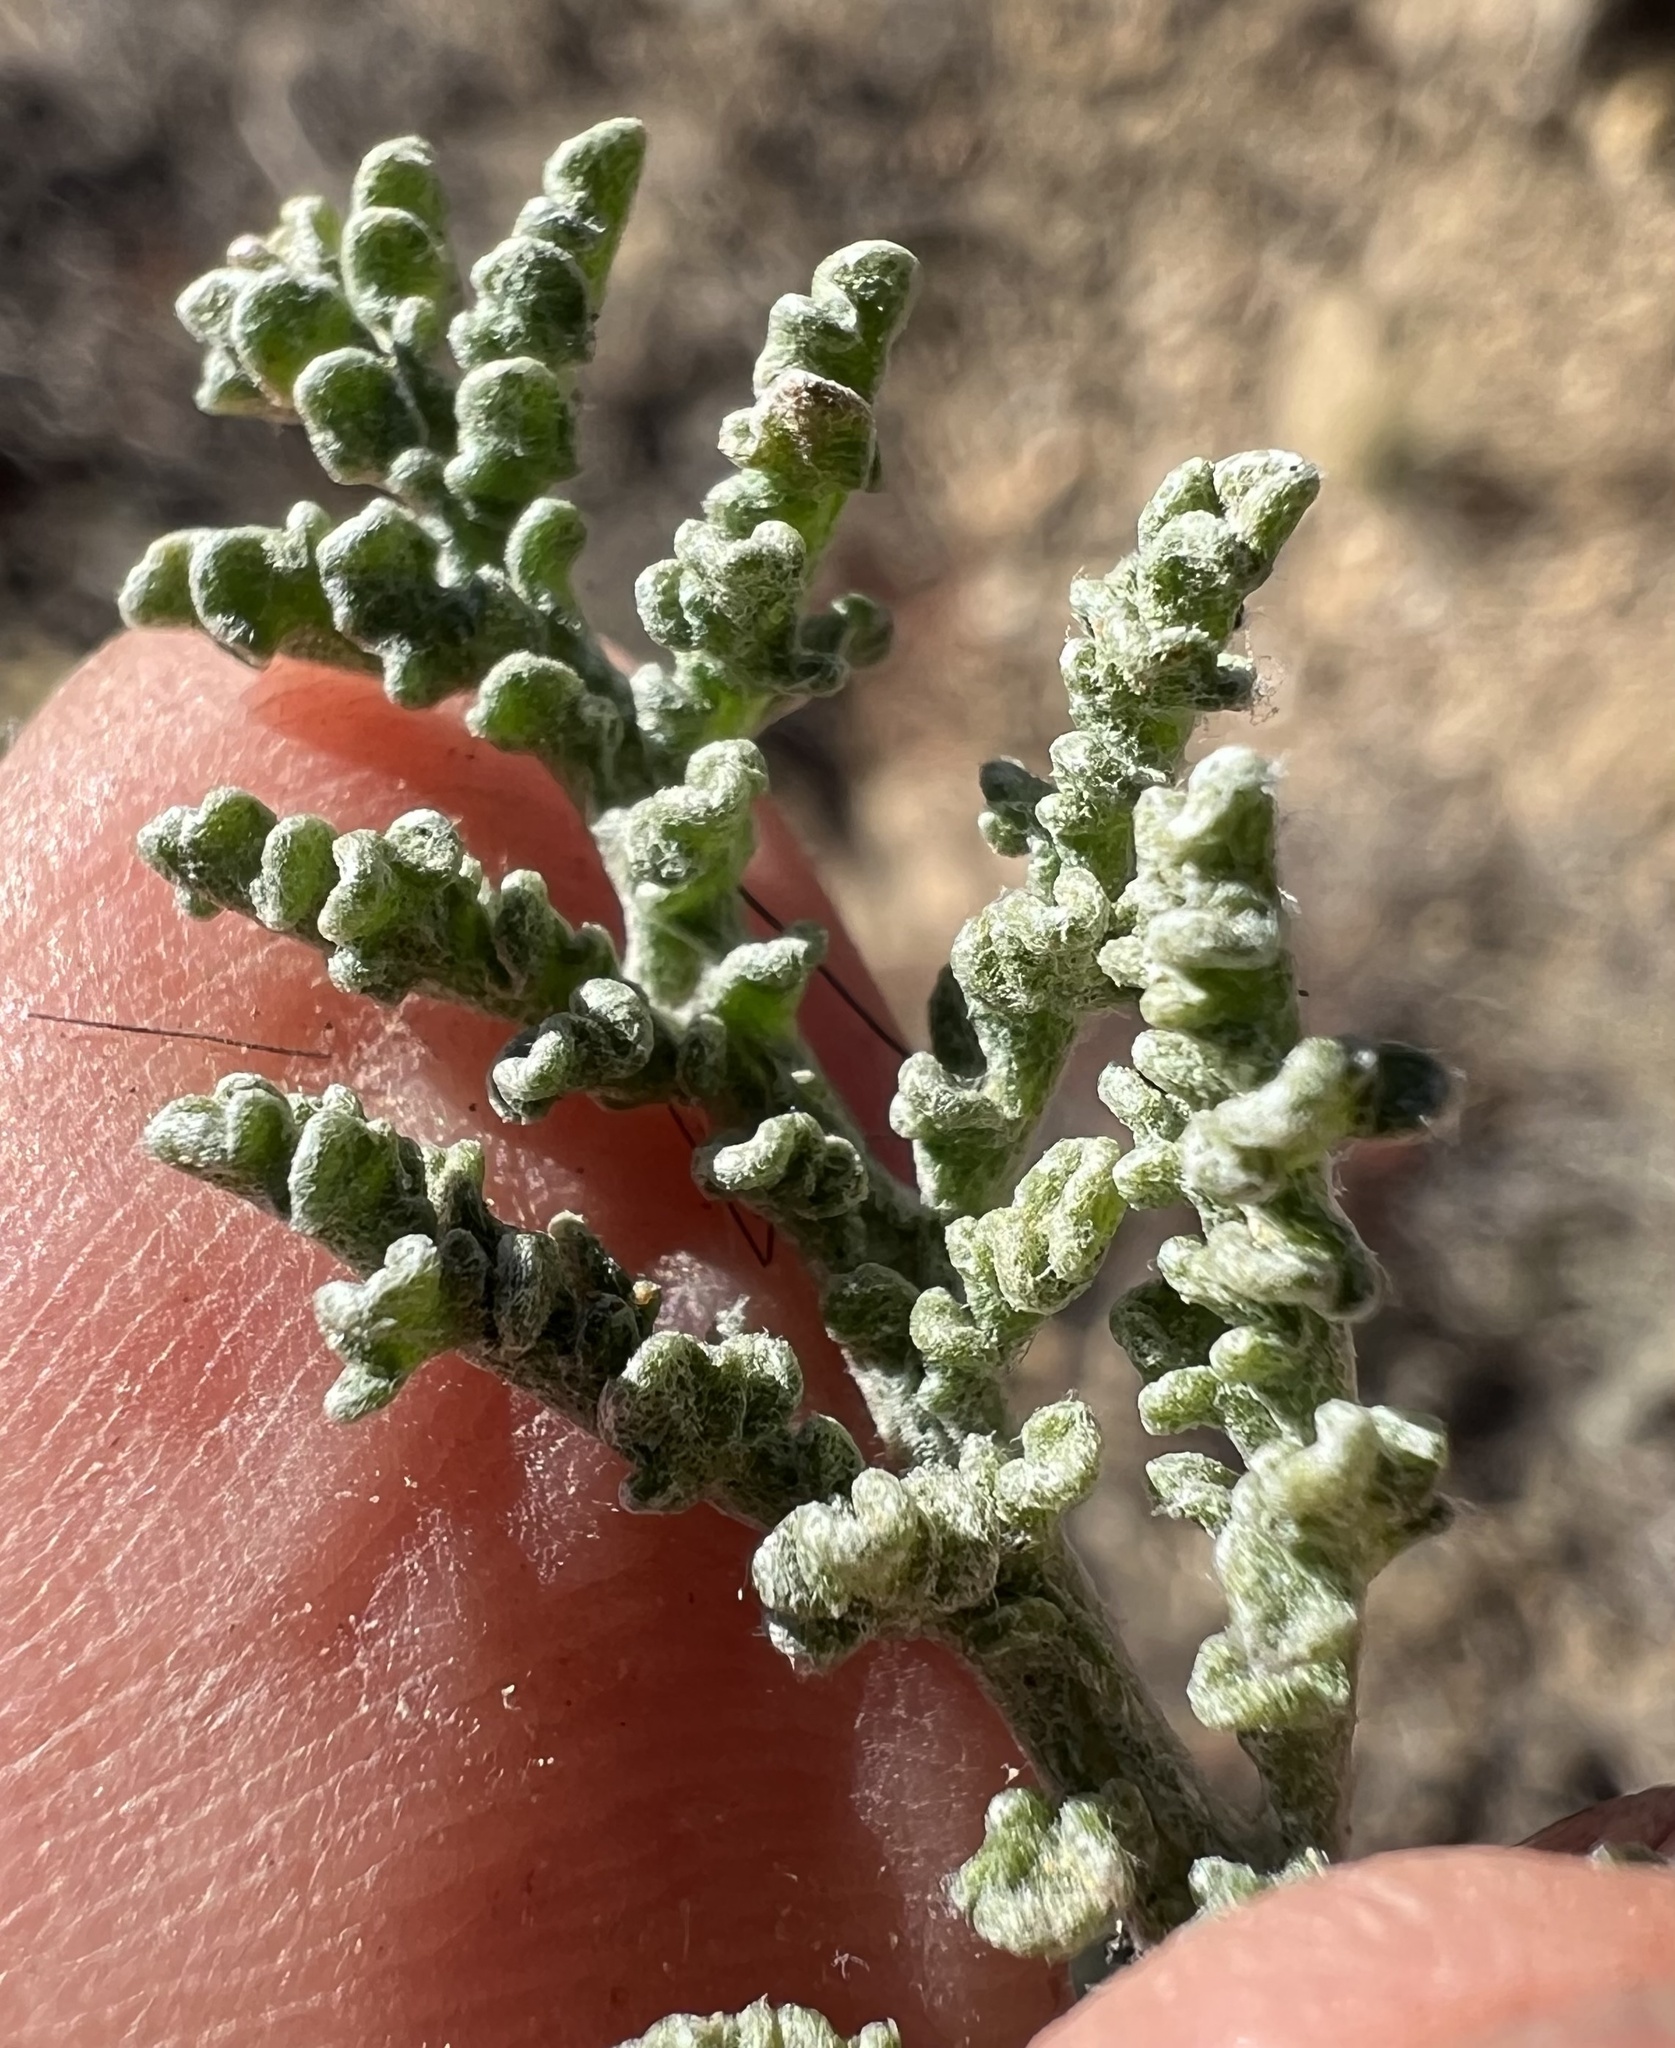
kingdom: Plantae
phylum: Tracheophyta
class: Magnoliopsida
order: Asterales
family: Asteraceae
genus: Chaenactis
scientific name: Chaenactis douglasii
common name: Hoary pincushion
